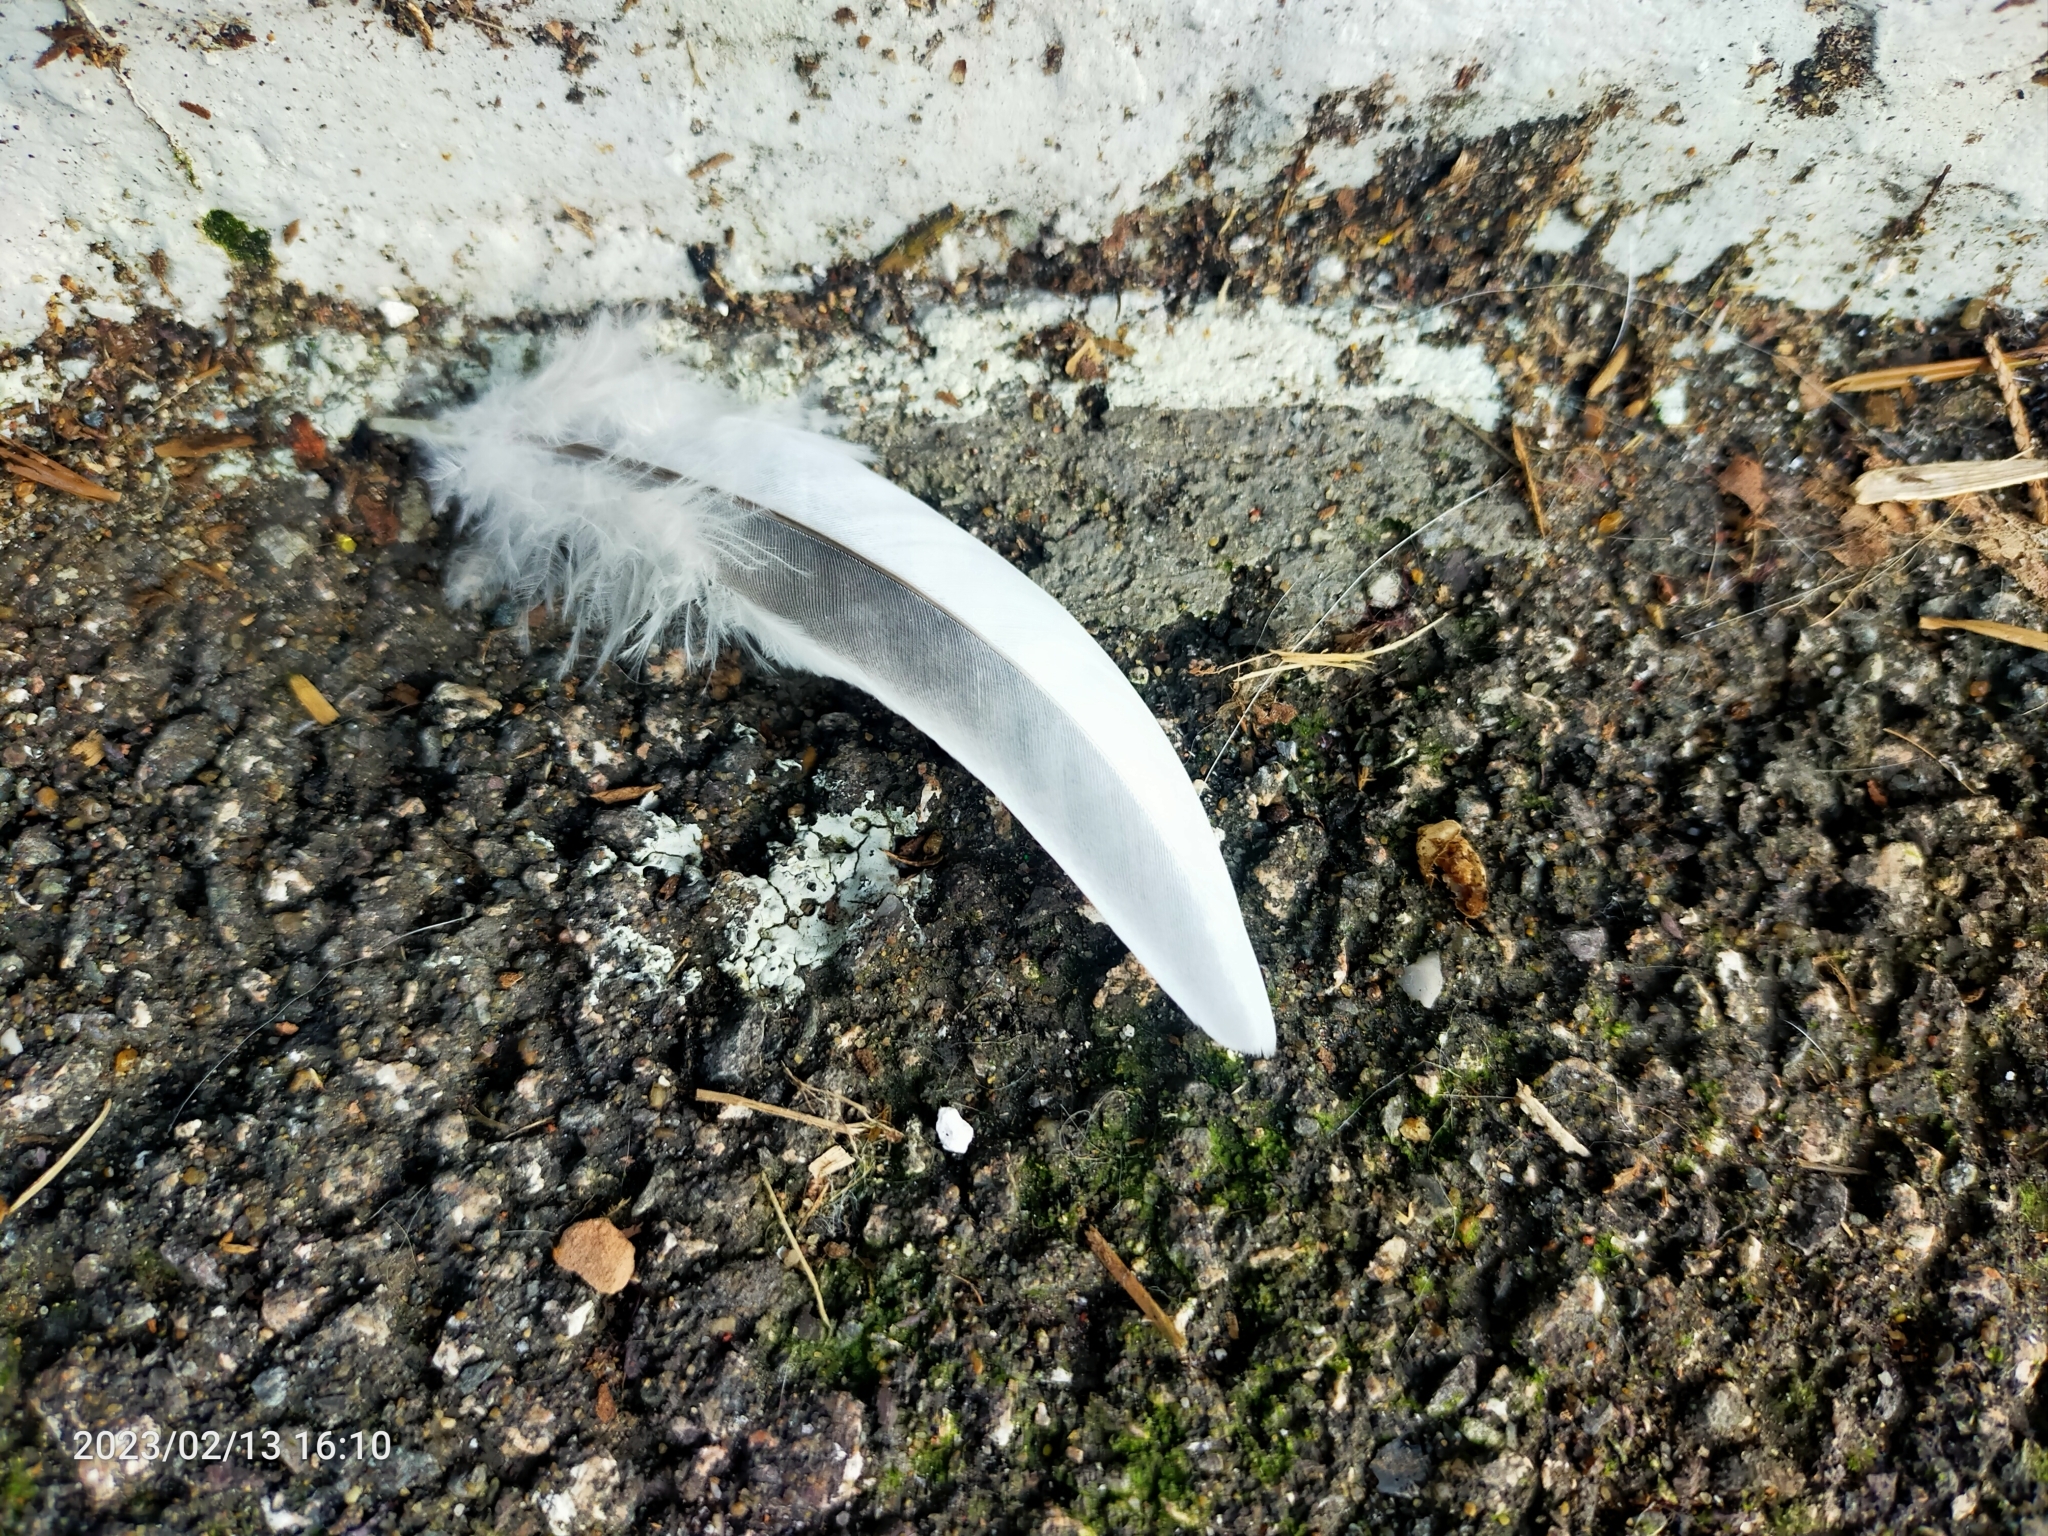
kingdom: Animalia
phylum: Chordata
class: Aves
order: Columbiformes
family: Columbidae
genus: Columba
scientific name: Columba
